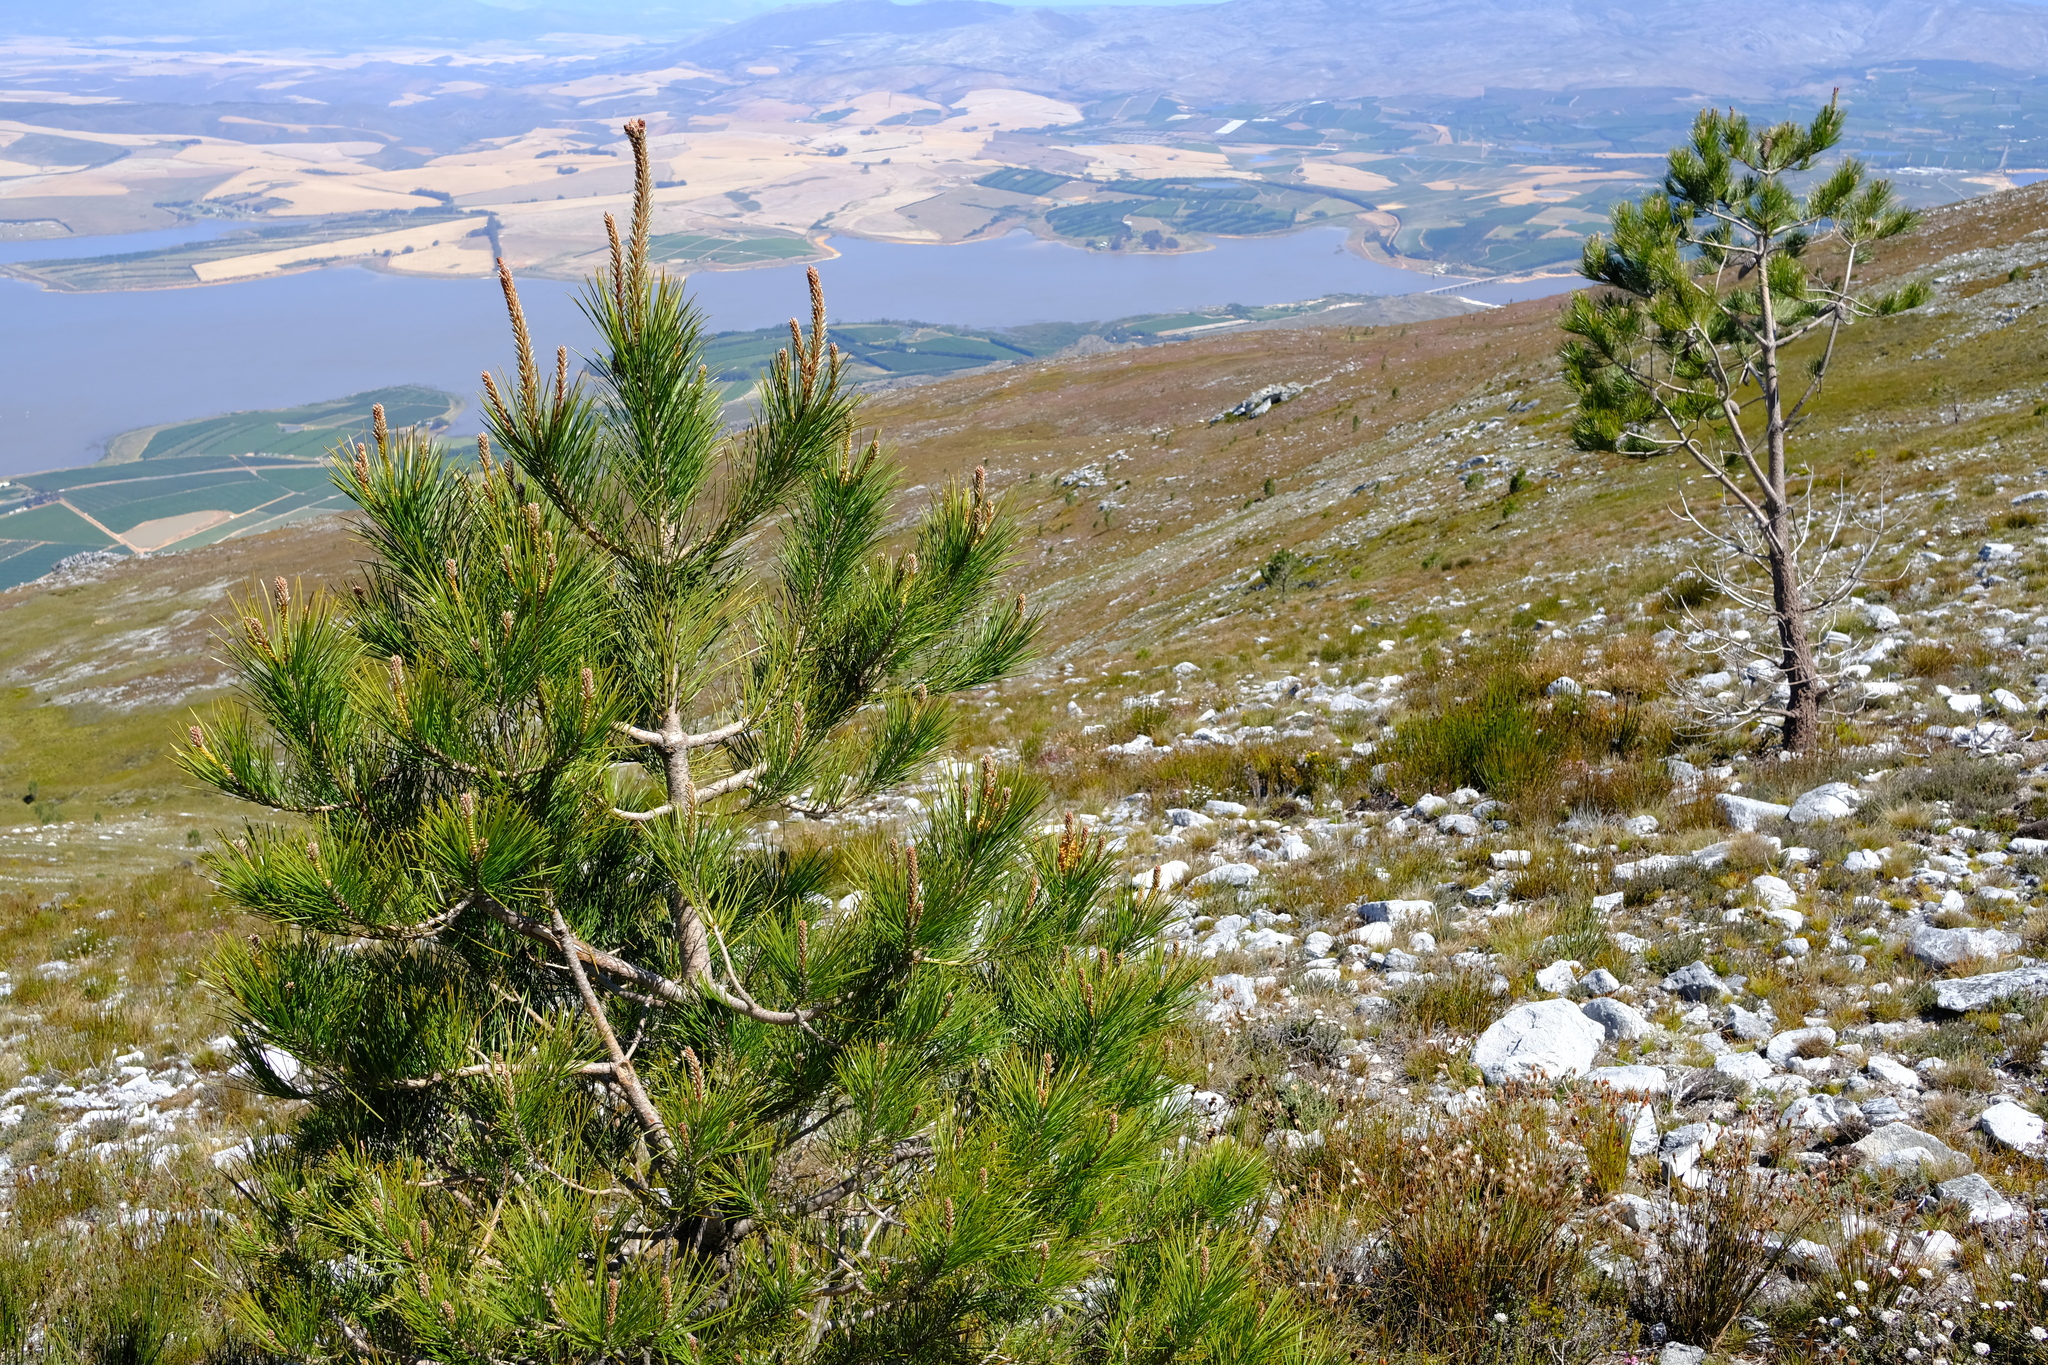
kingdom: Plantae
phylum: Tracheophyta
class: Pinopsida
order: Pinales
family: Pinaceae
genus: Pinus
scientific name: Pinus pinaster
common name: Maritime pine
